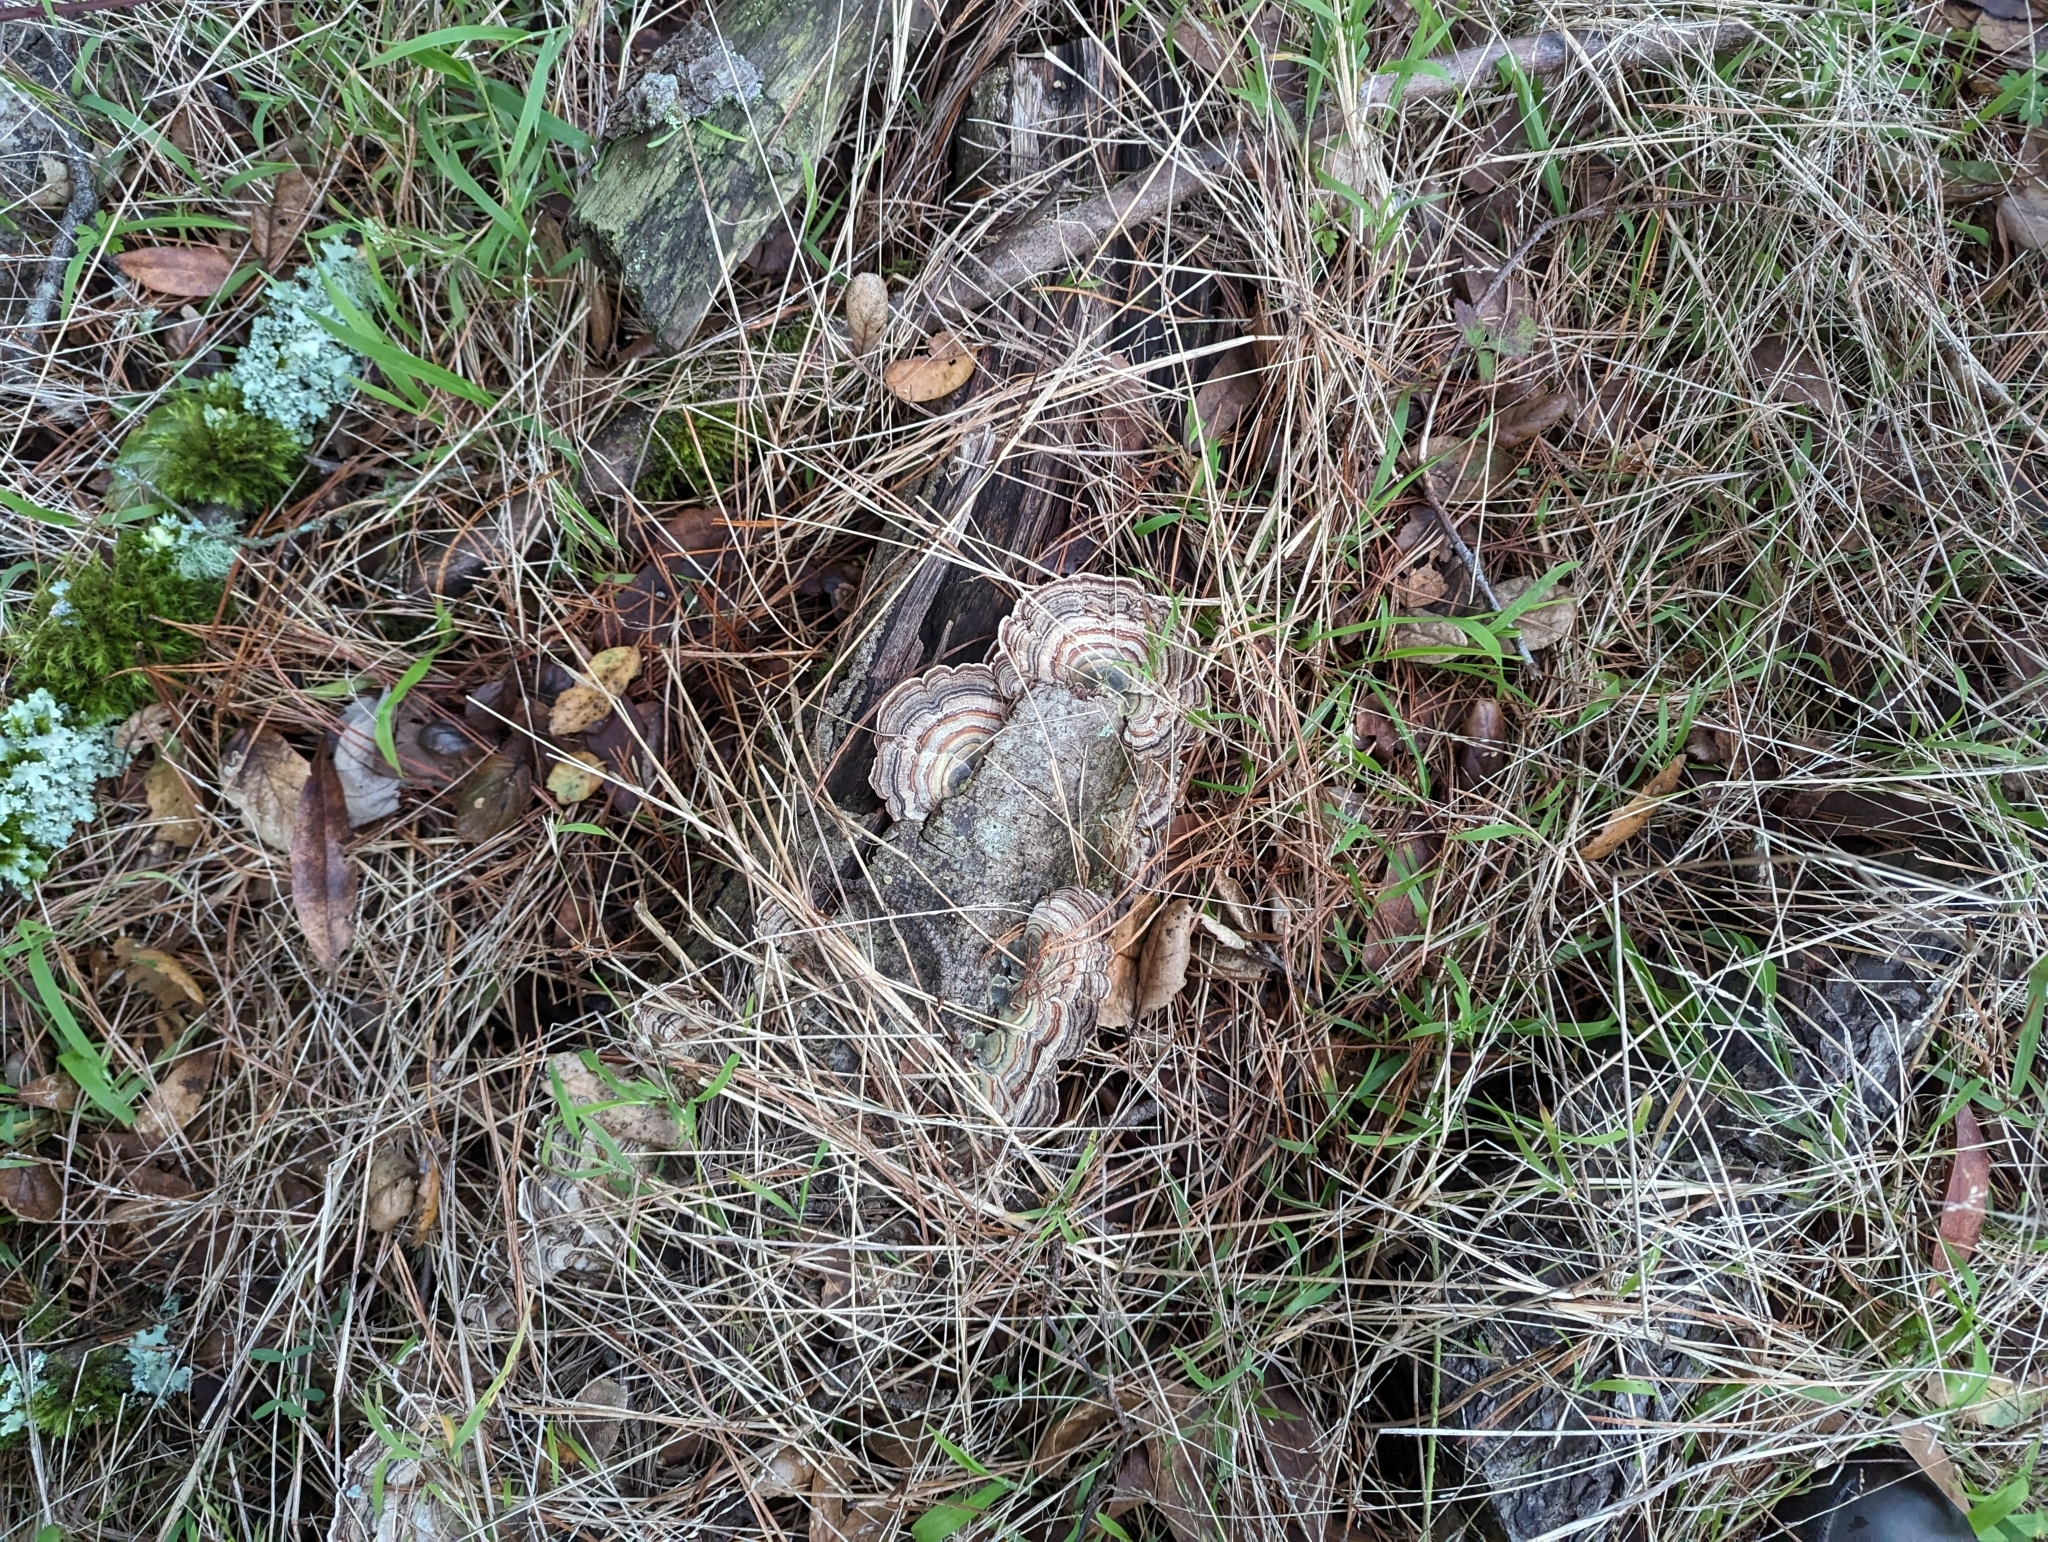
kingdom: Fungi
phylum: Basidiomycota
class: Agaricomycetes
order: Polyporales
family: Polyporaceae
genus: Trametes
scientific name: Trametes versicolor
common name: Turkeytail
